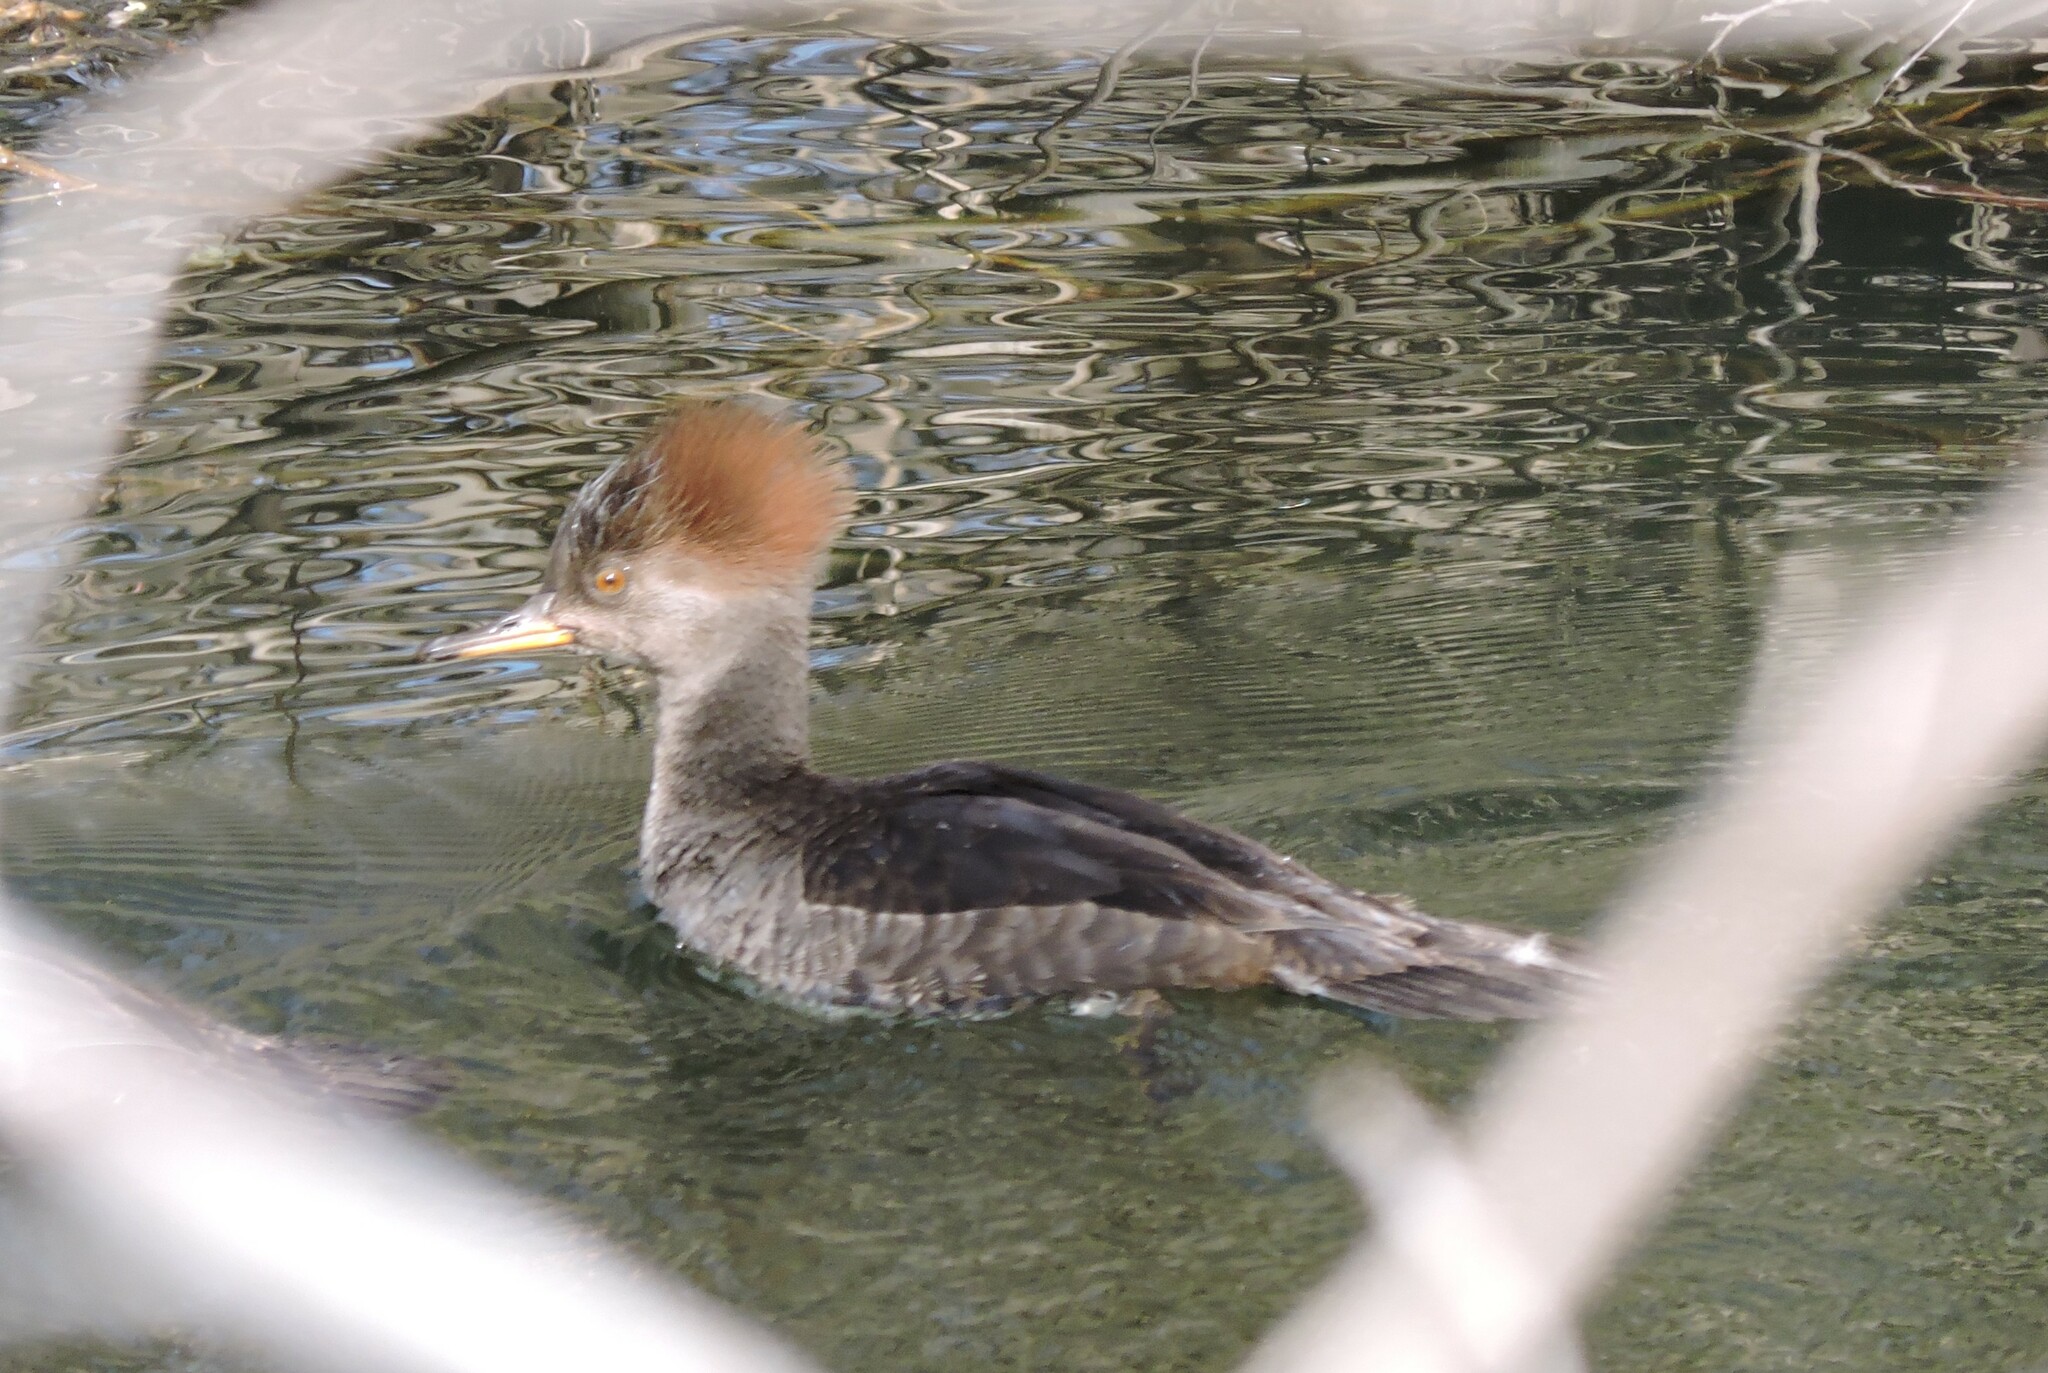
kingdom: Animalia
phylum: Chordata
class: Aves
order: Anseriformes
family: Anatidae
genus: Lophodytes
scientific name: Lophodytes cucullatus
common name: Hooded merganser
